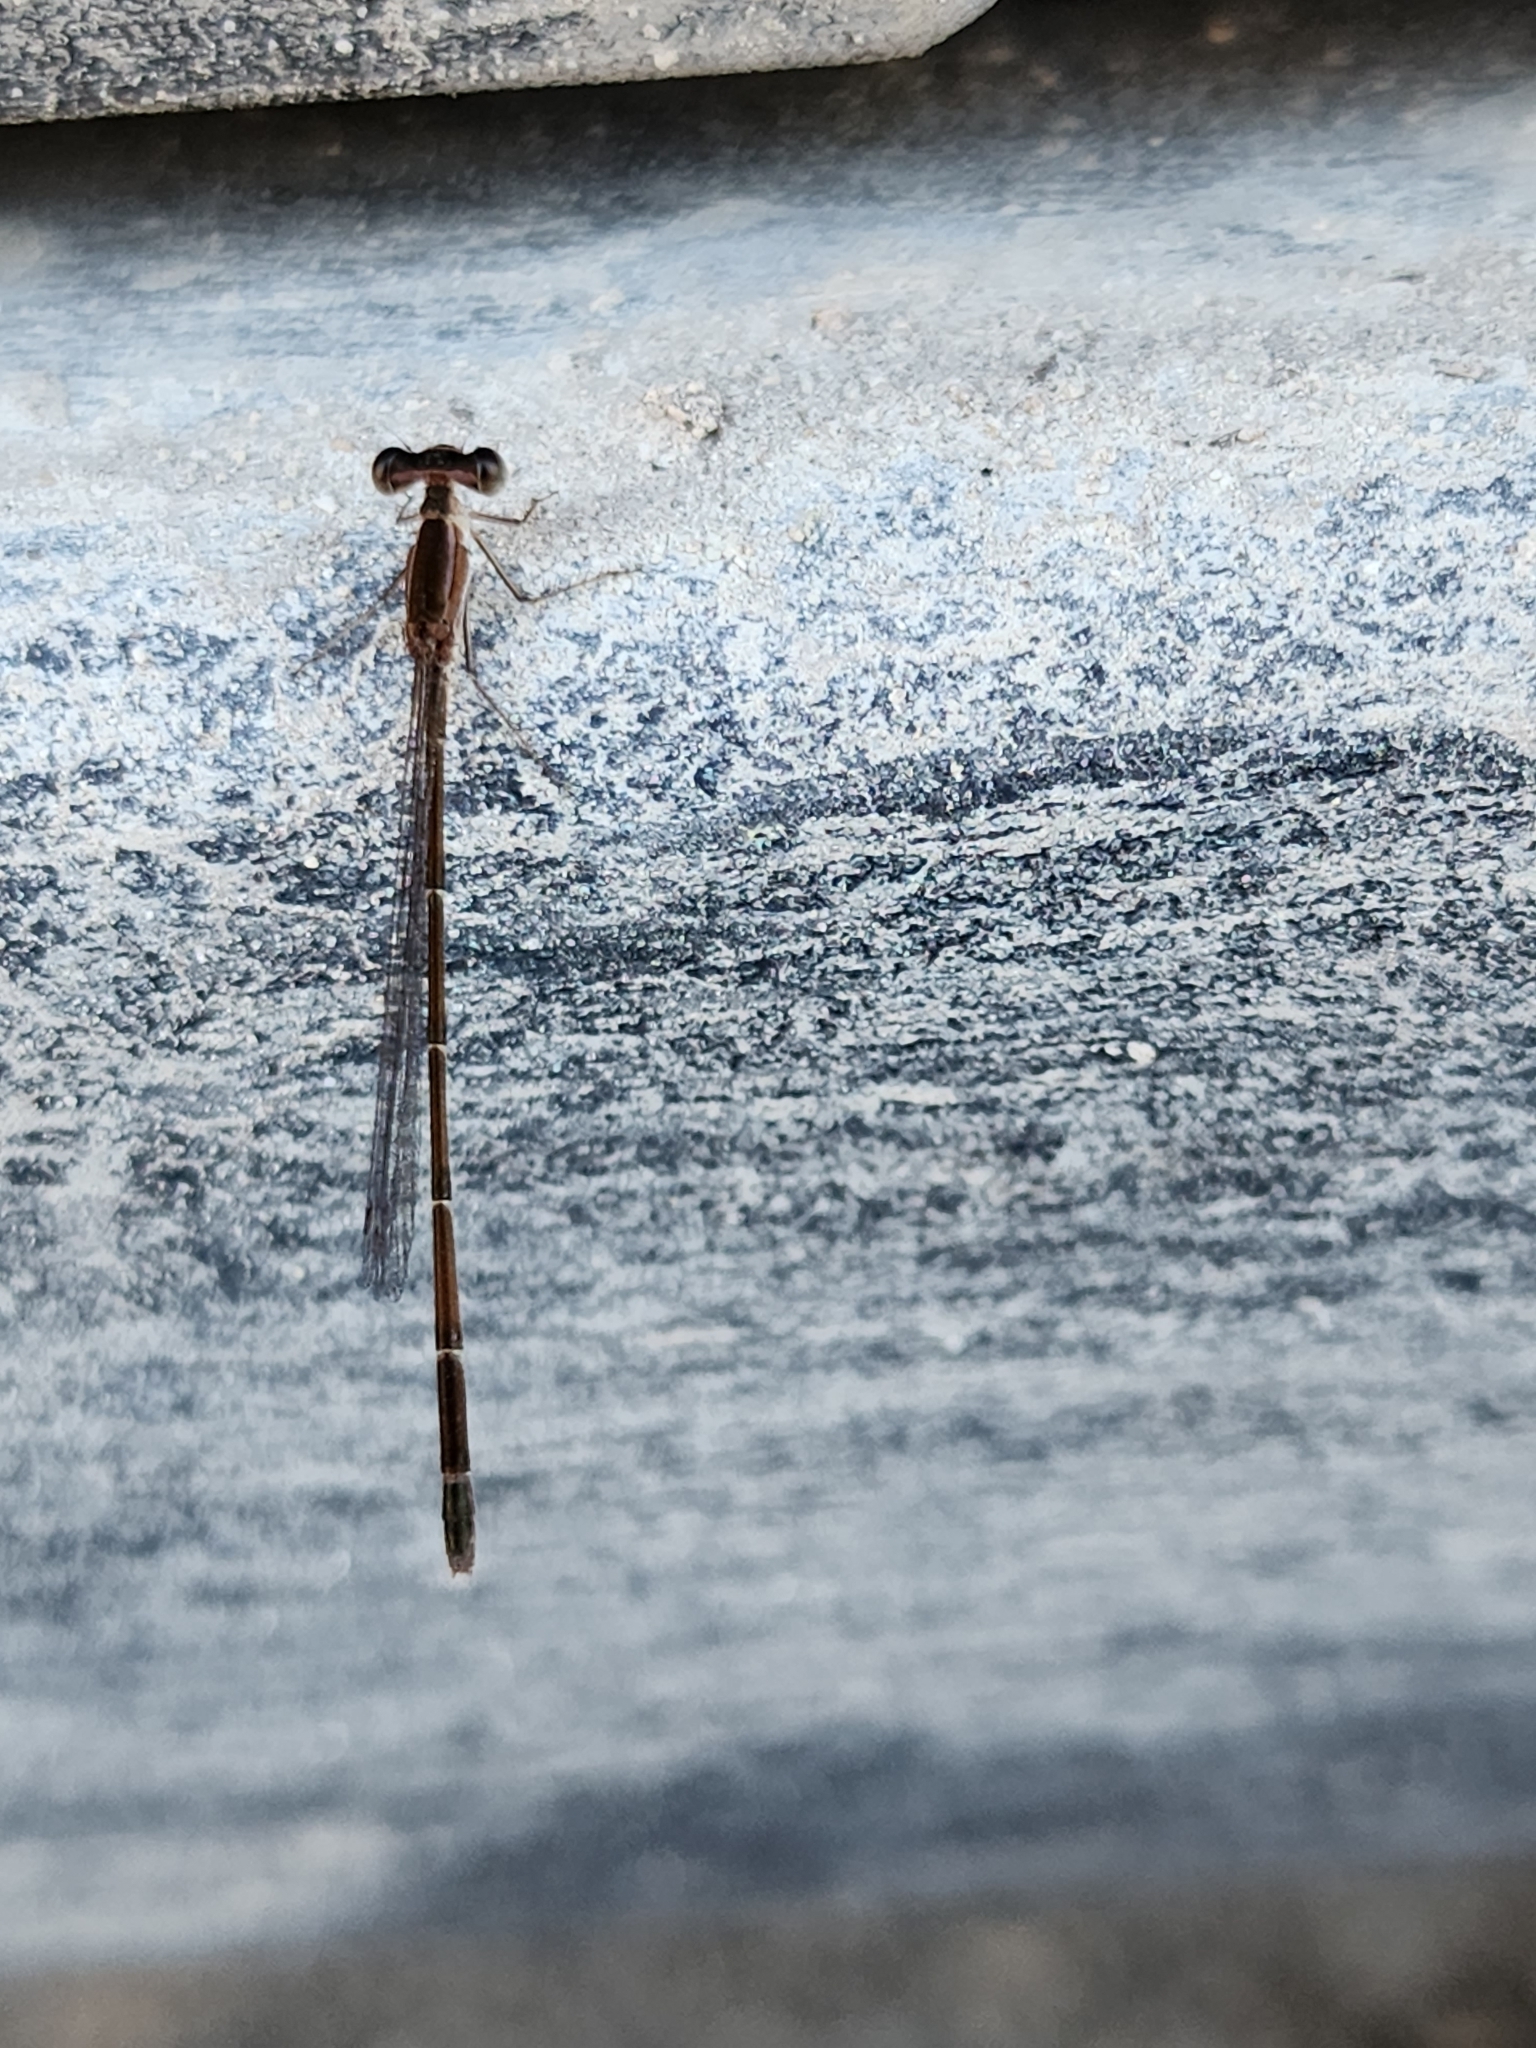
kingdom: Animalia
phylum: Arthropoda
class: Insecta
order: Odonata
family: Coenagrionidae
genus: Nehalennia
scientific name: Nehalennia pallidula
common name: Everglades sprite
